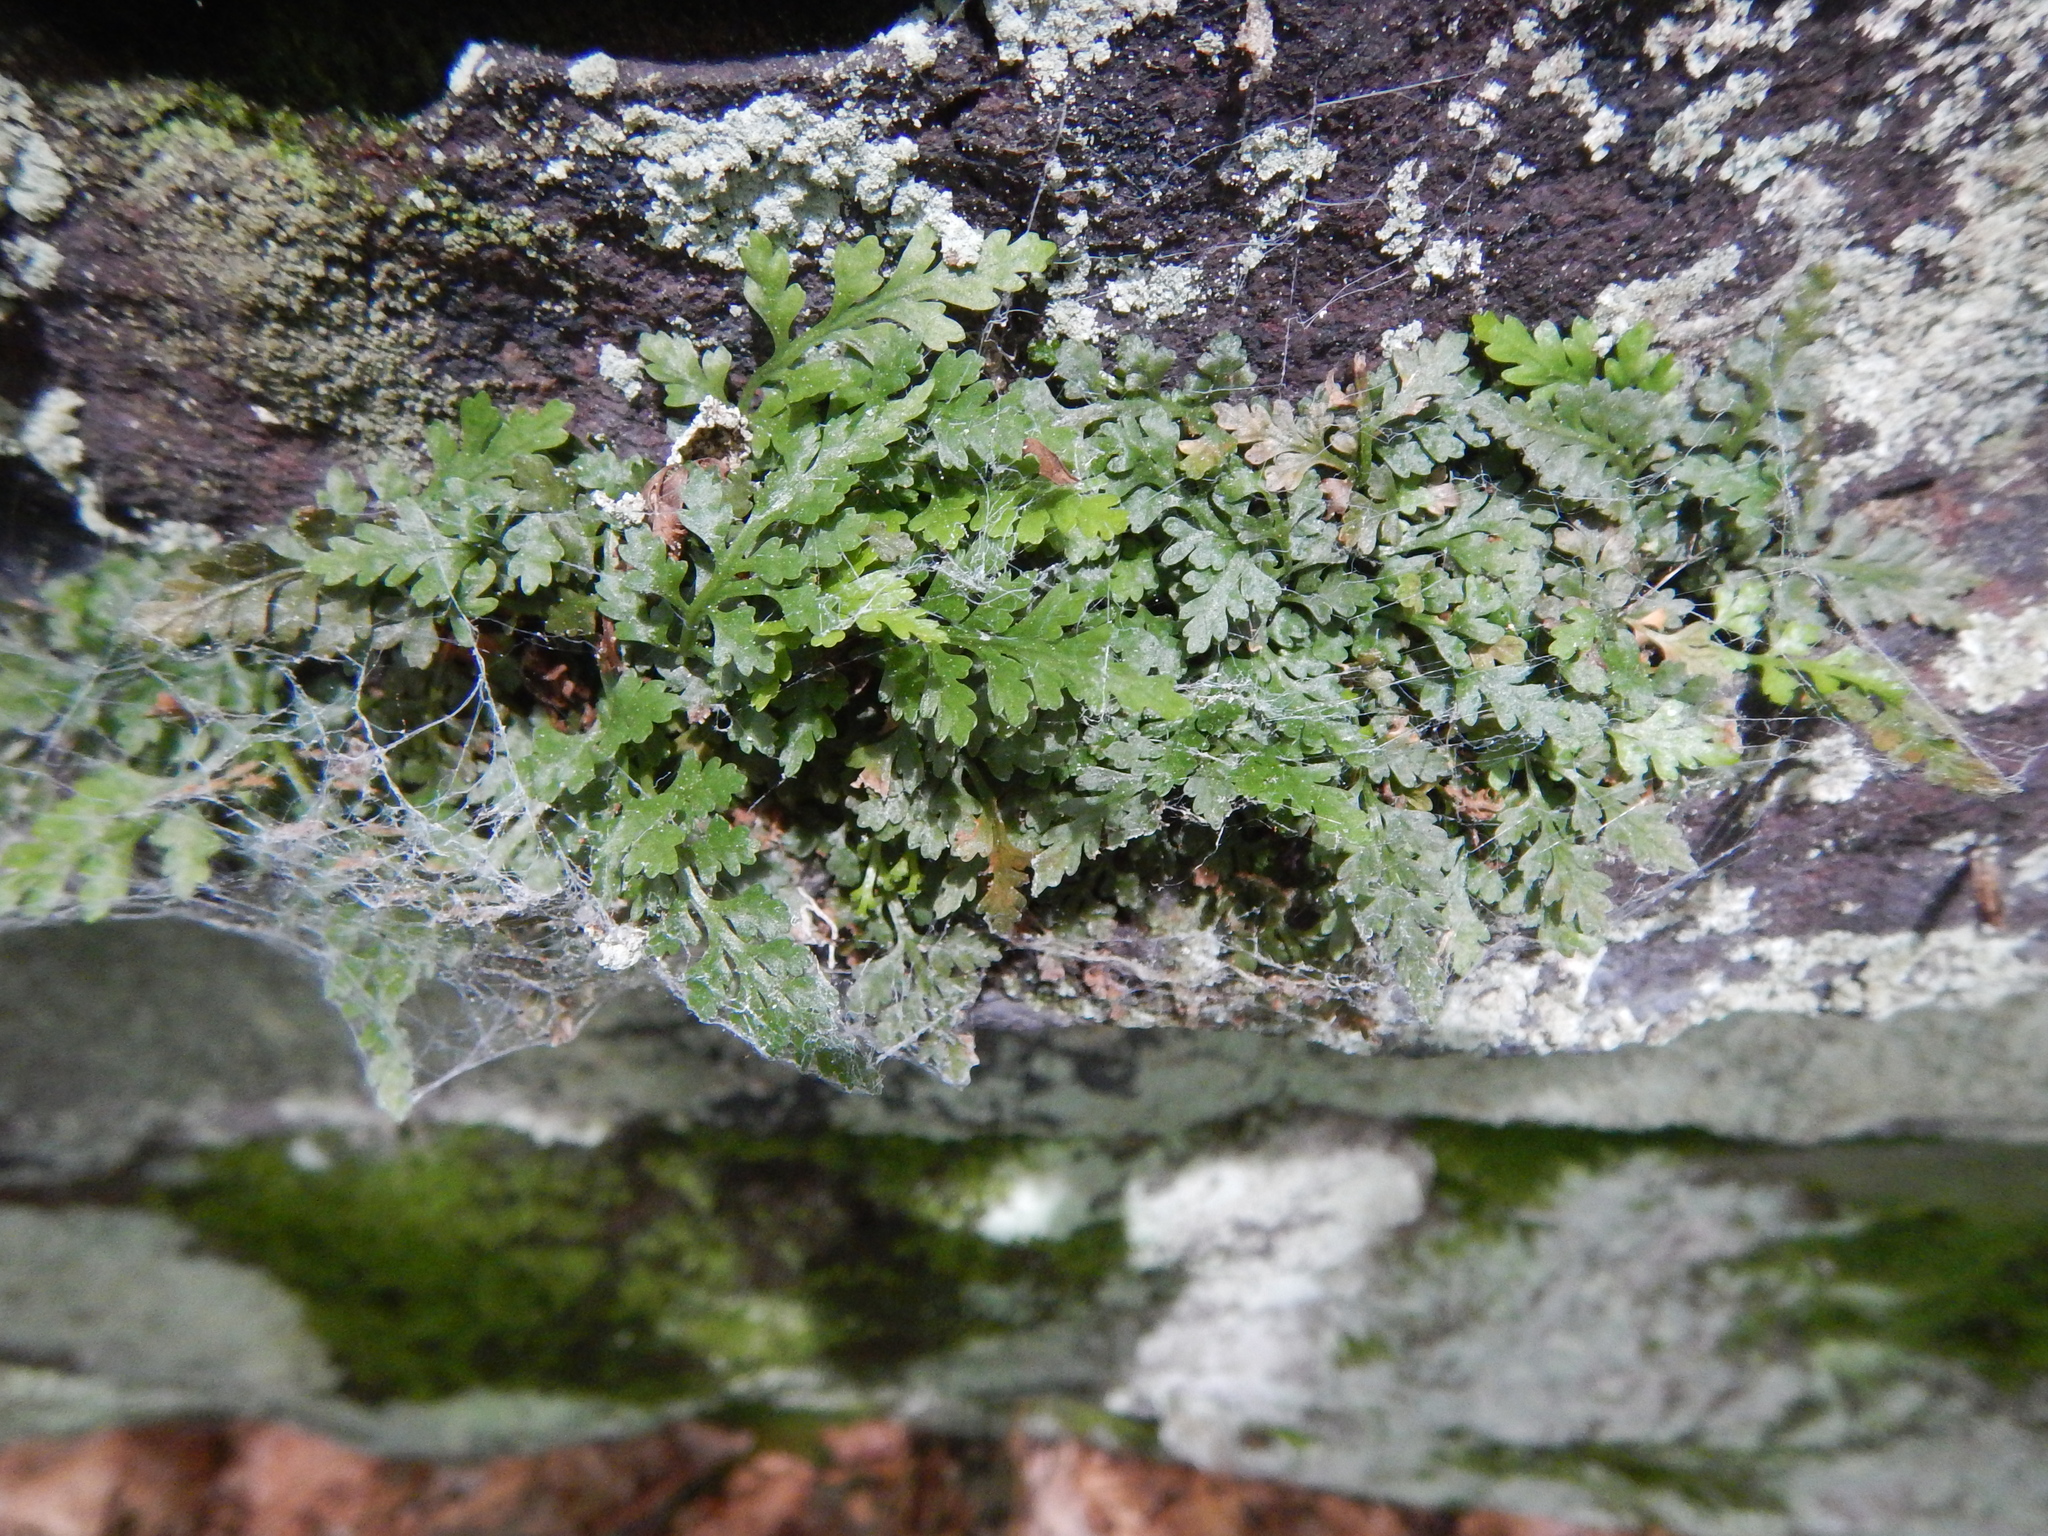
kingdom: Plantae
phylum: Tracheophyta
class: Polypodiopsida
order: Polypodiales
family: Aspleniaceae
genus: Asplenium
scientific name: Asplenium montanum
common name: Mountain spleenwort
